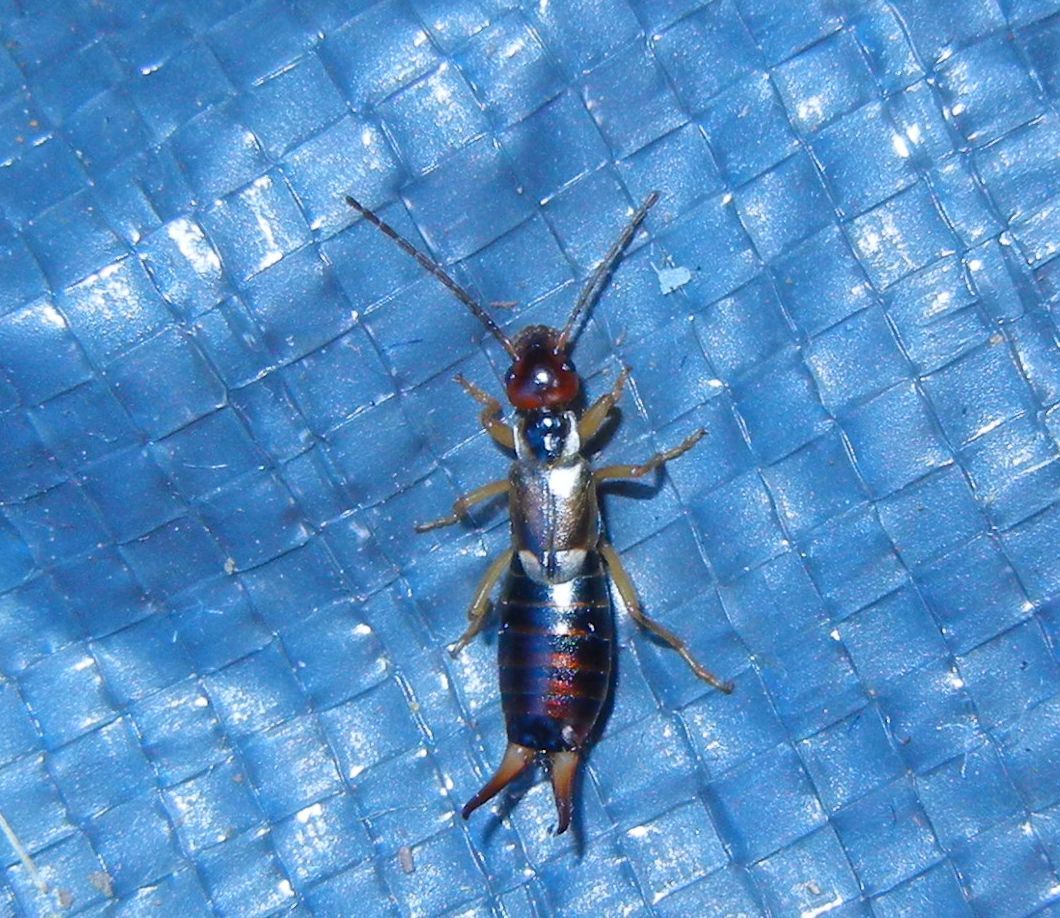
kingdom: Animalia
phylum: Arthropoda
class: Insecta
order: Dermaptera
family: Forficulidae
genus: Forficula
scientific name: Forficula
